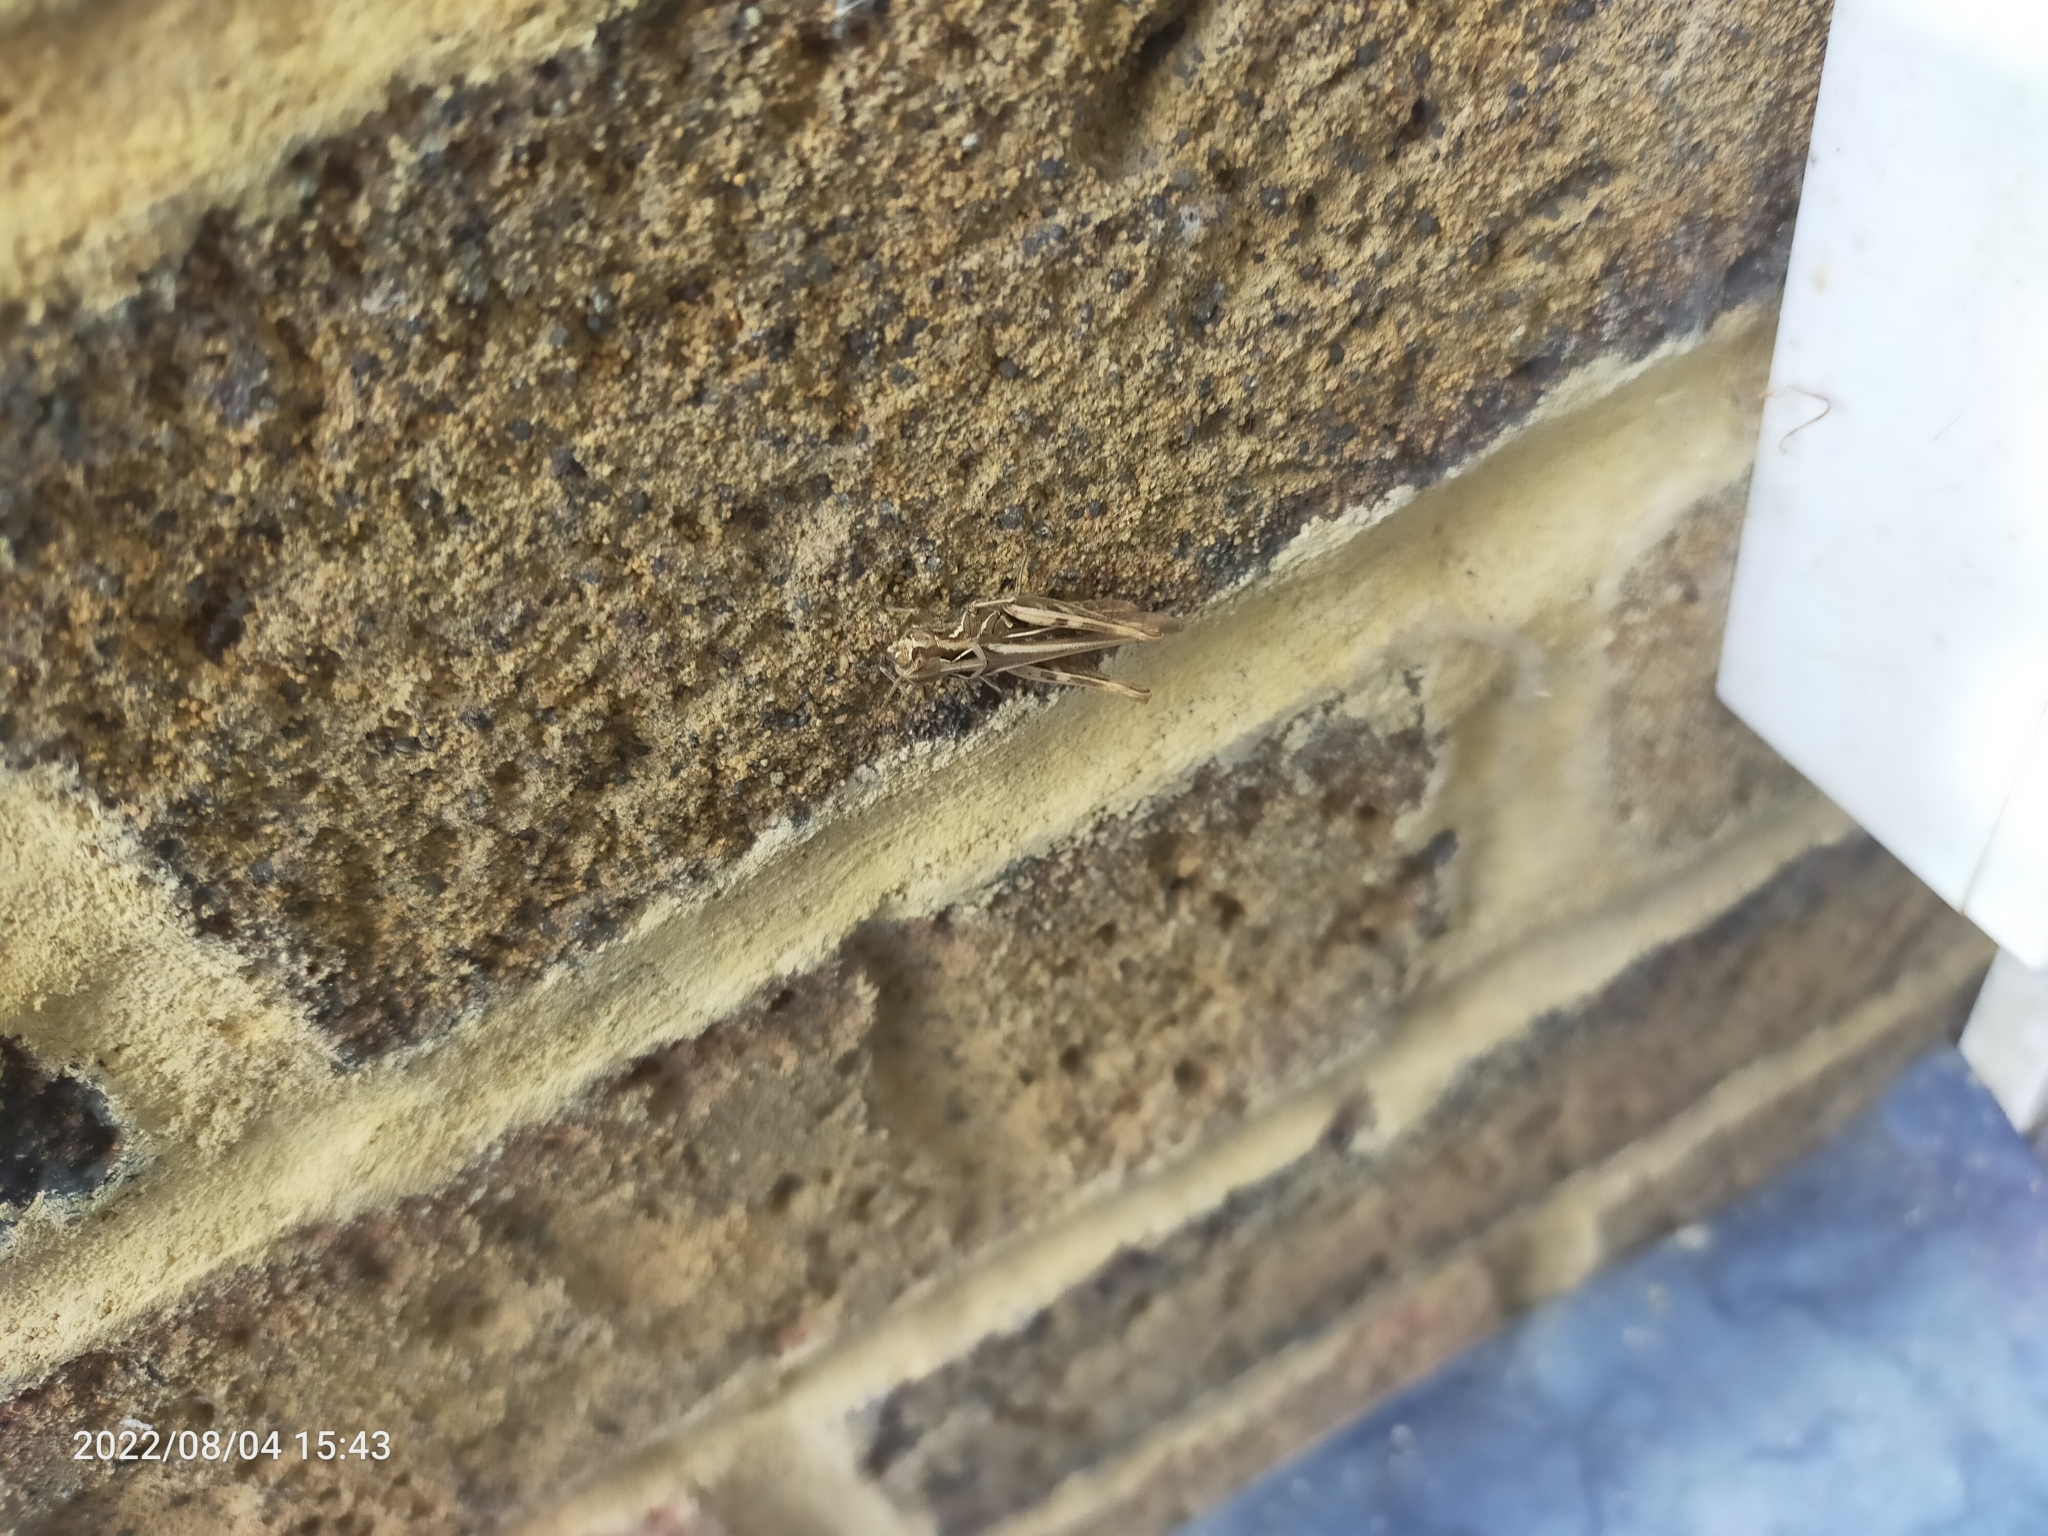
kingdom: Animalia
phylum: Arthropoda
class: Insecta
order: Orthoptera
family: Acrididae
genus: Chorthippus
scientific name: Chorthippus brunneus
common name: Field grasshopper
